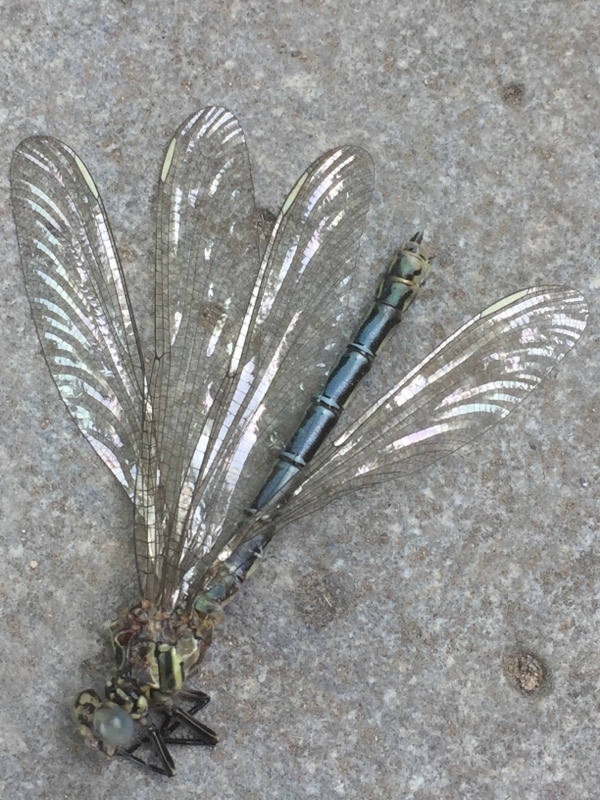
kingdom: Animalia
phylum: Arthropoda
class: Insecta
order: Odonata
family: Euphaeidae
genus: Epallage
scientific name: Epallage fatime
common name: Odalisque
